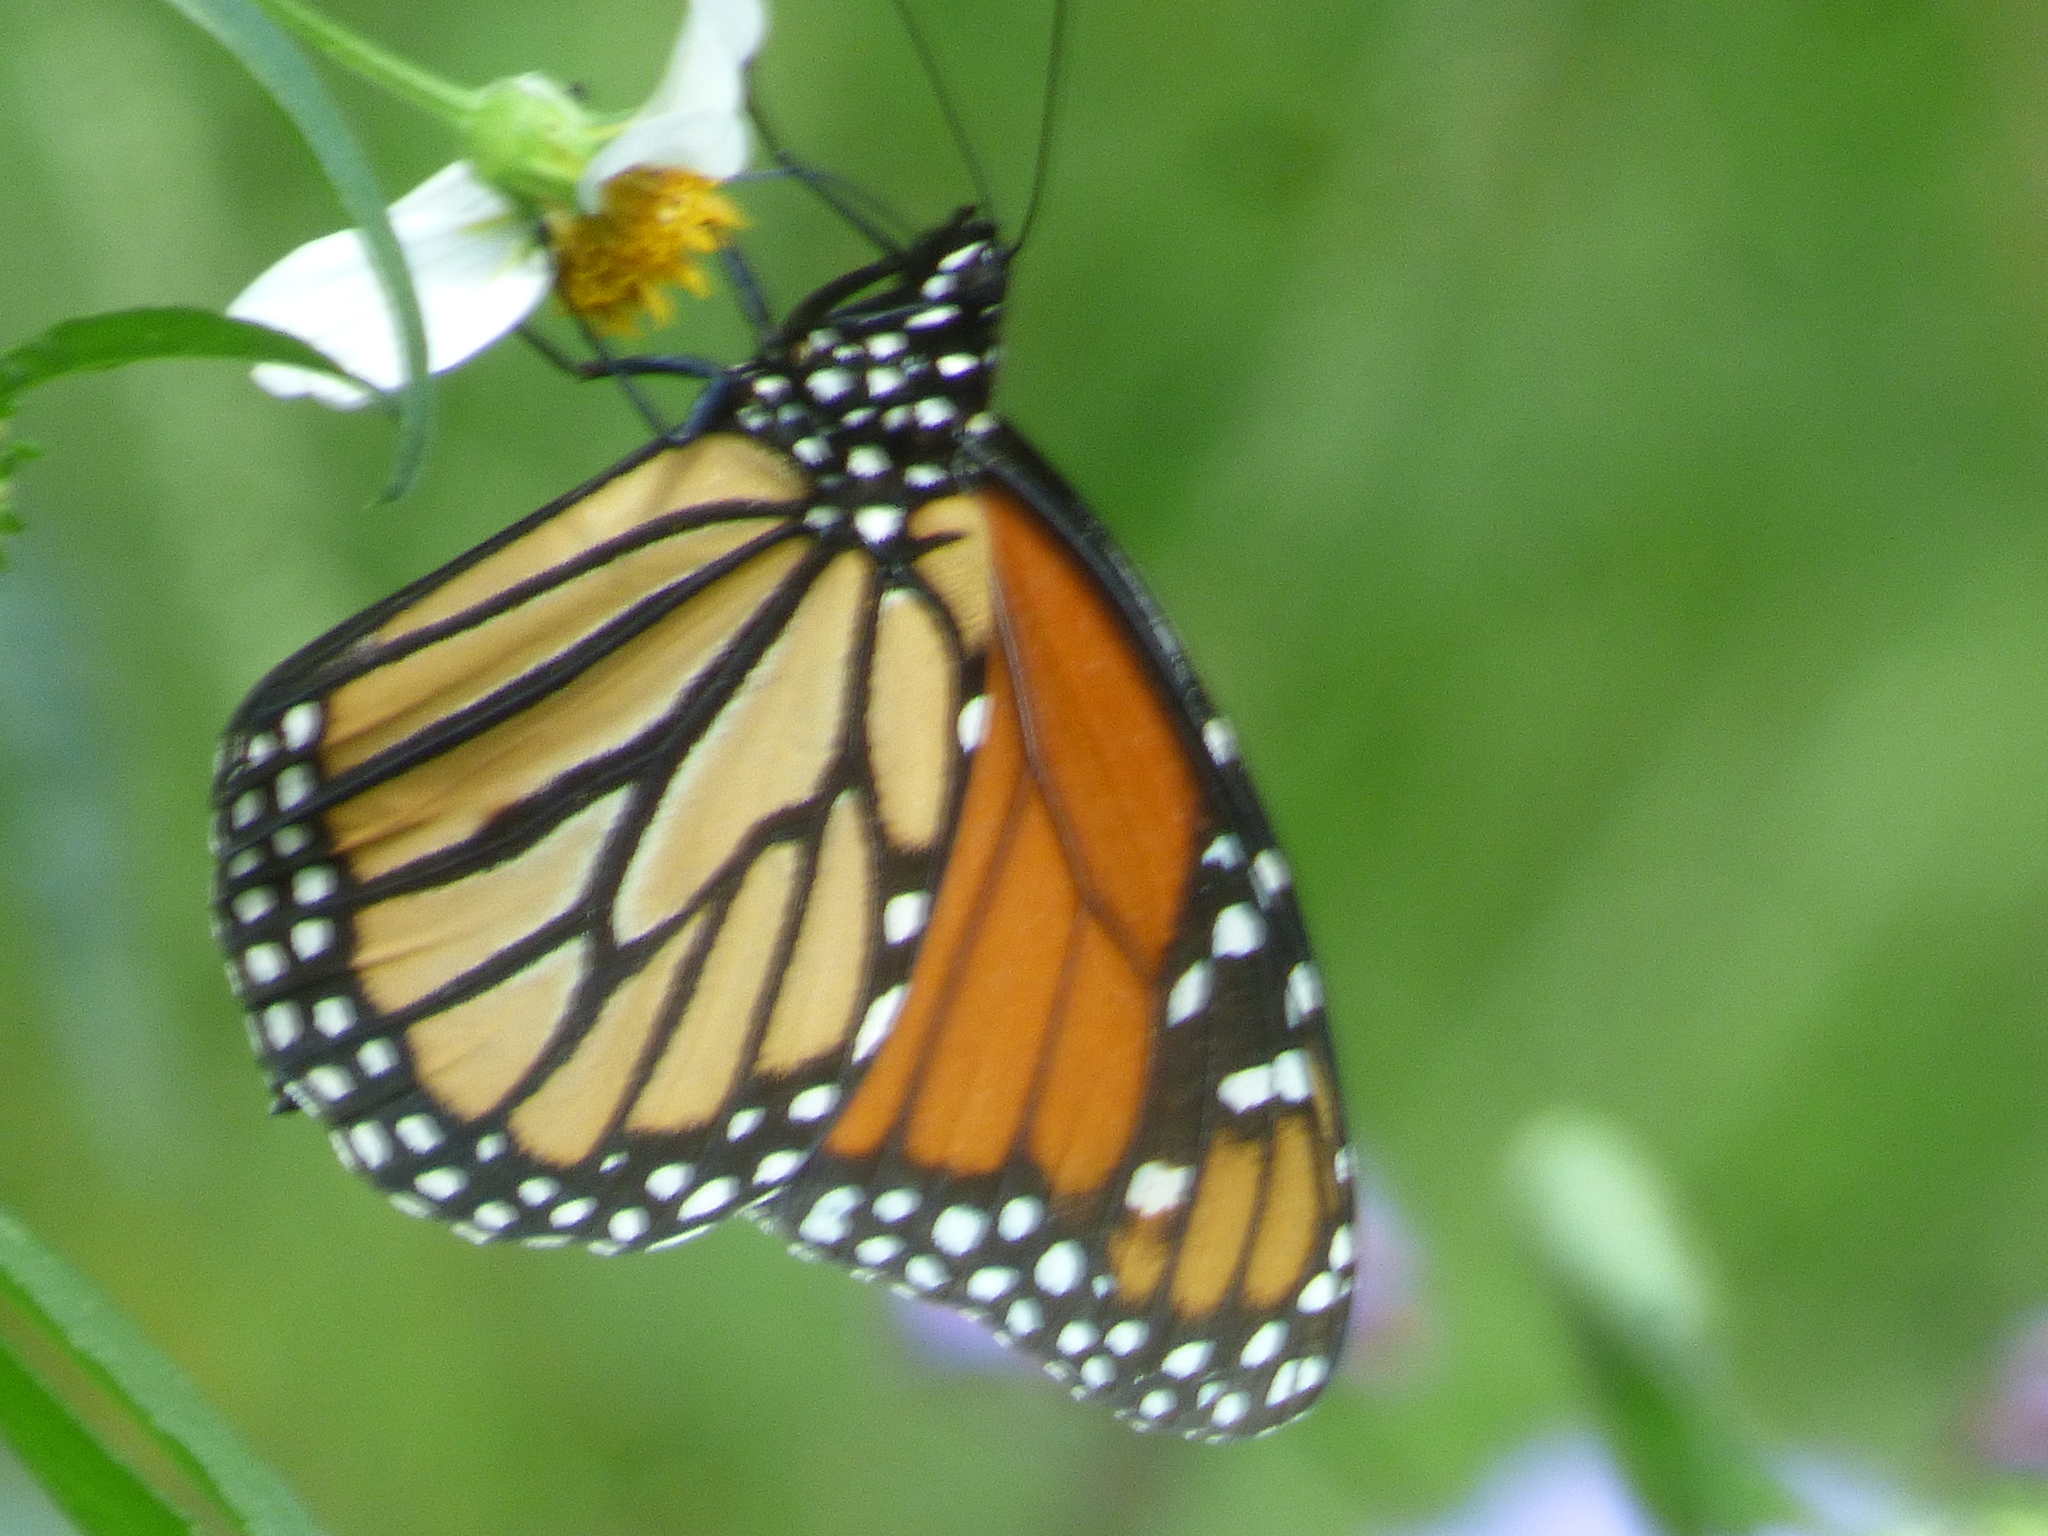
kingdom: Animalia
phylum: Arthropoda
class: Insecta
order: Lepidoptera
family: Nymphalidae
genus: Danaus
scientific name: Danaus plexippus
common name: Monarch
